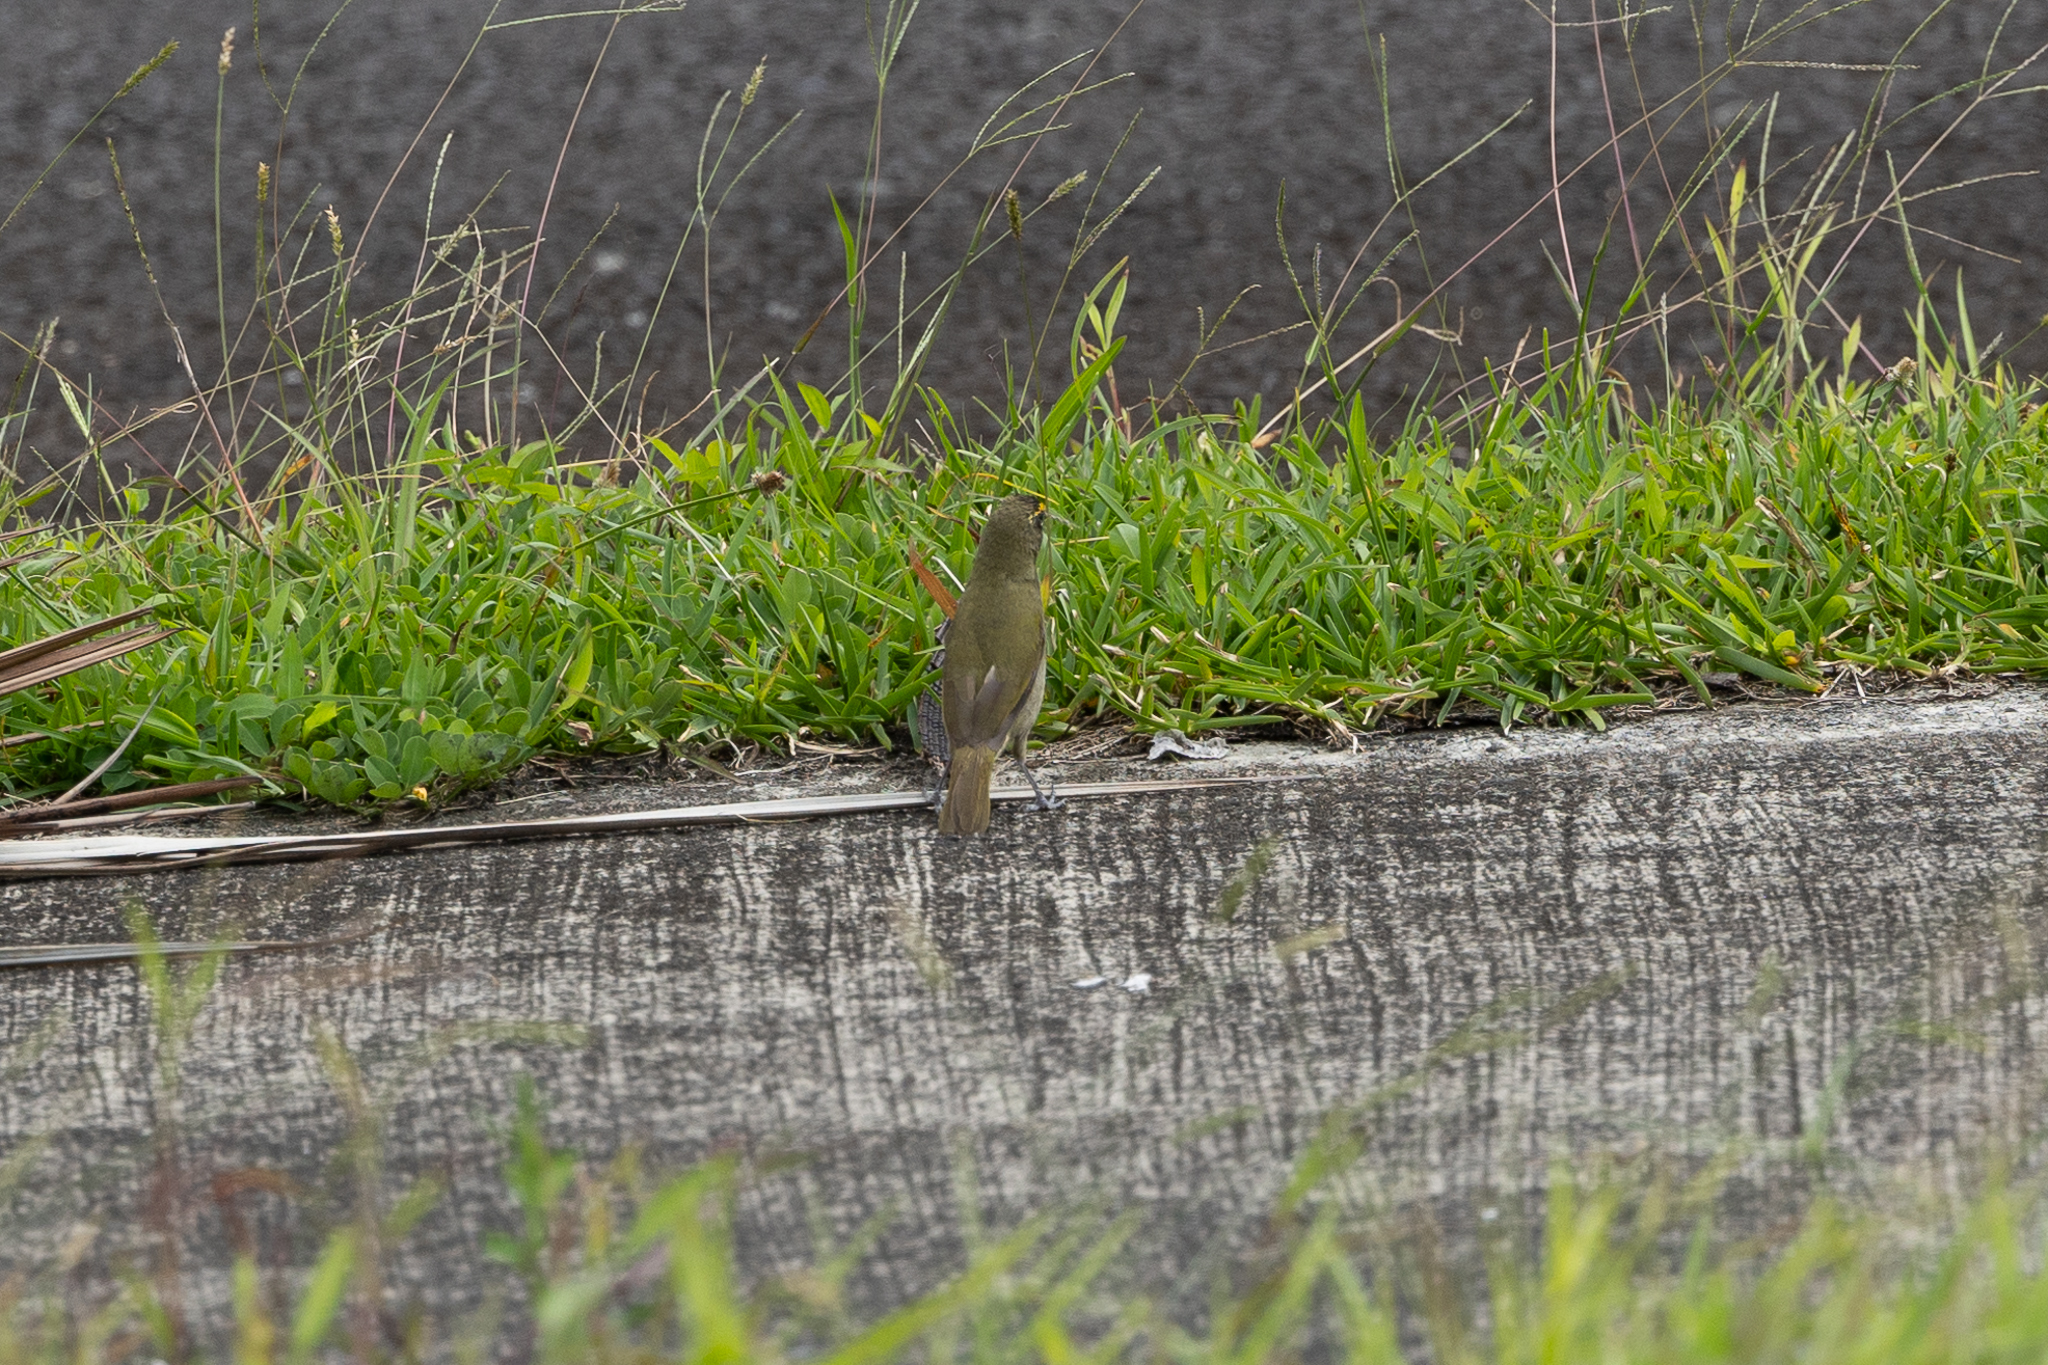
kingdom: Animalia
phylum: Chordata
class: Aves
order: Passeriformes
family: Thraupidae
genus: Tiaris
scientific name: Tiaris olivaceus
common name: Yellow-faced grassquit
